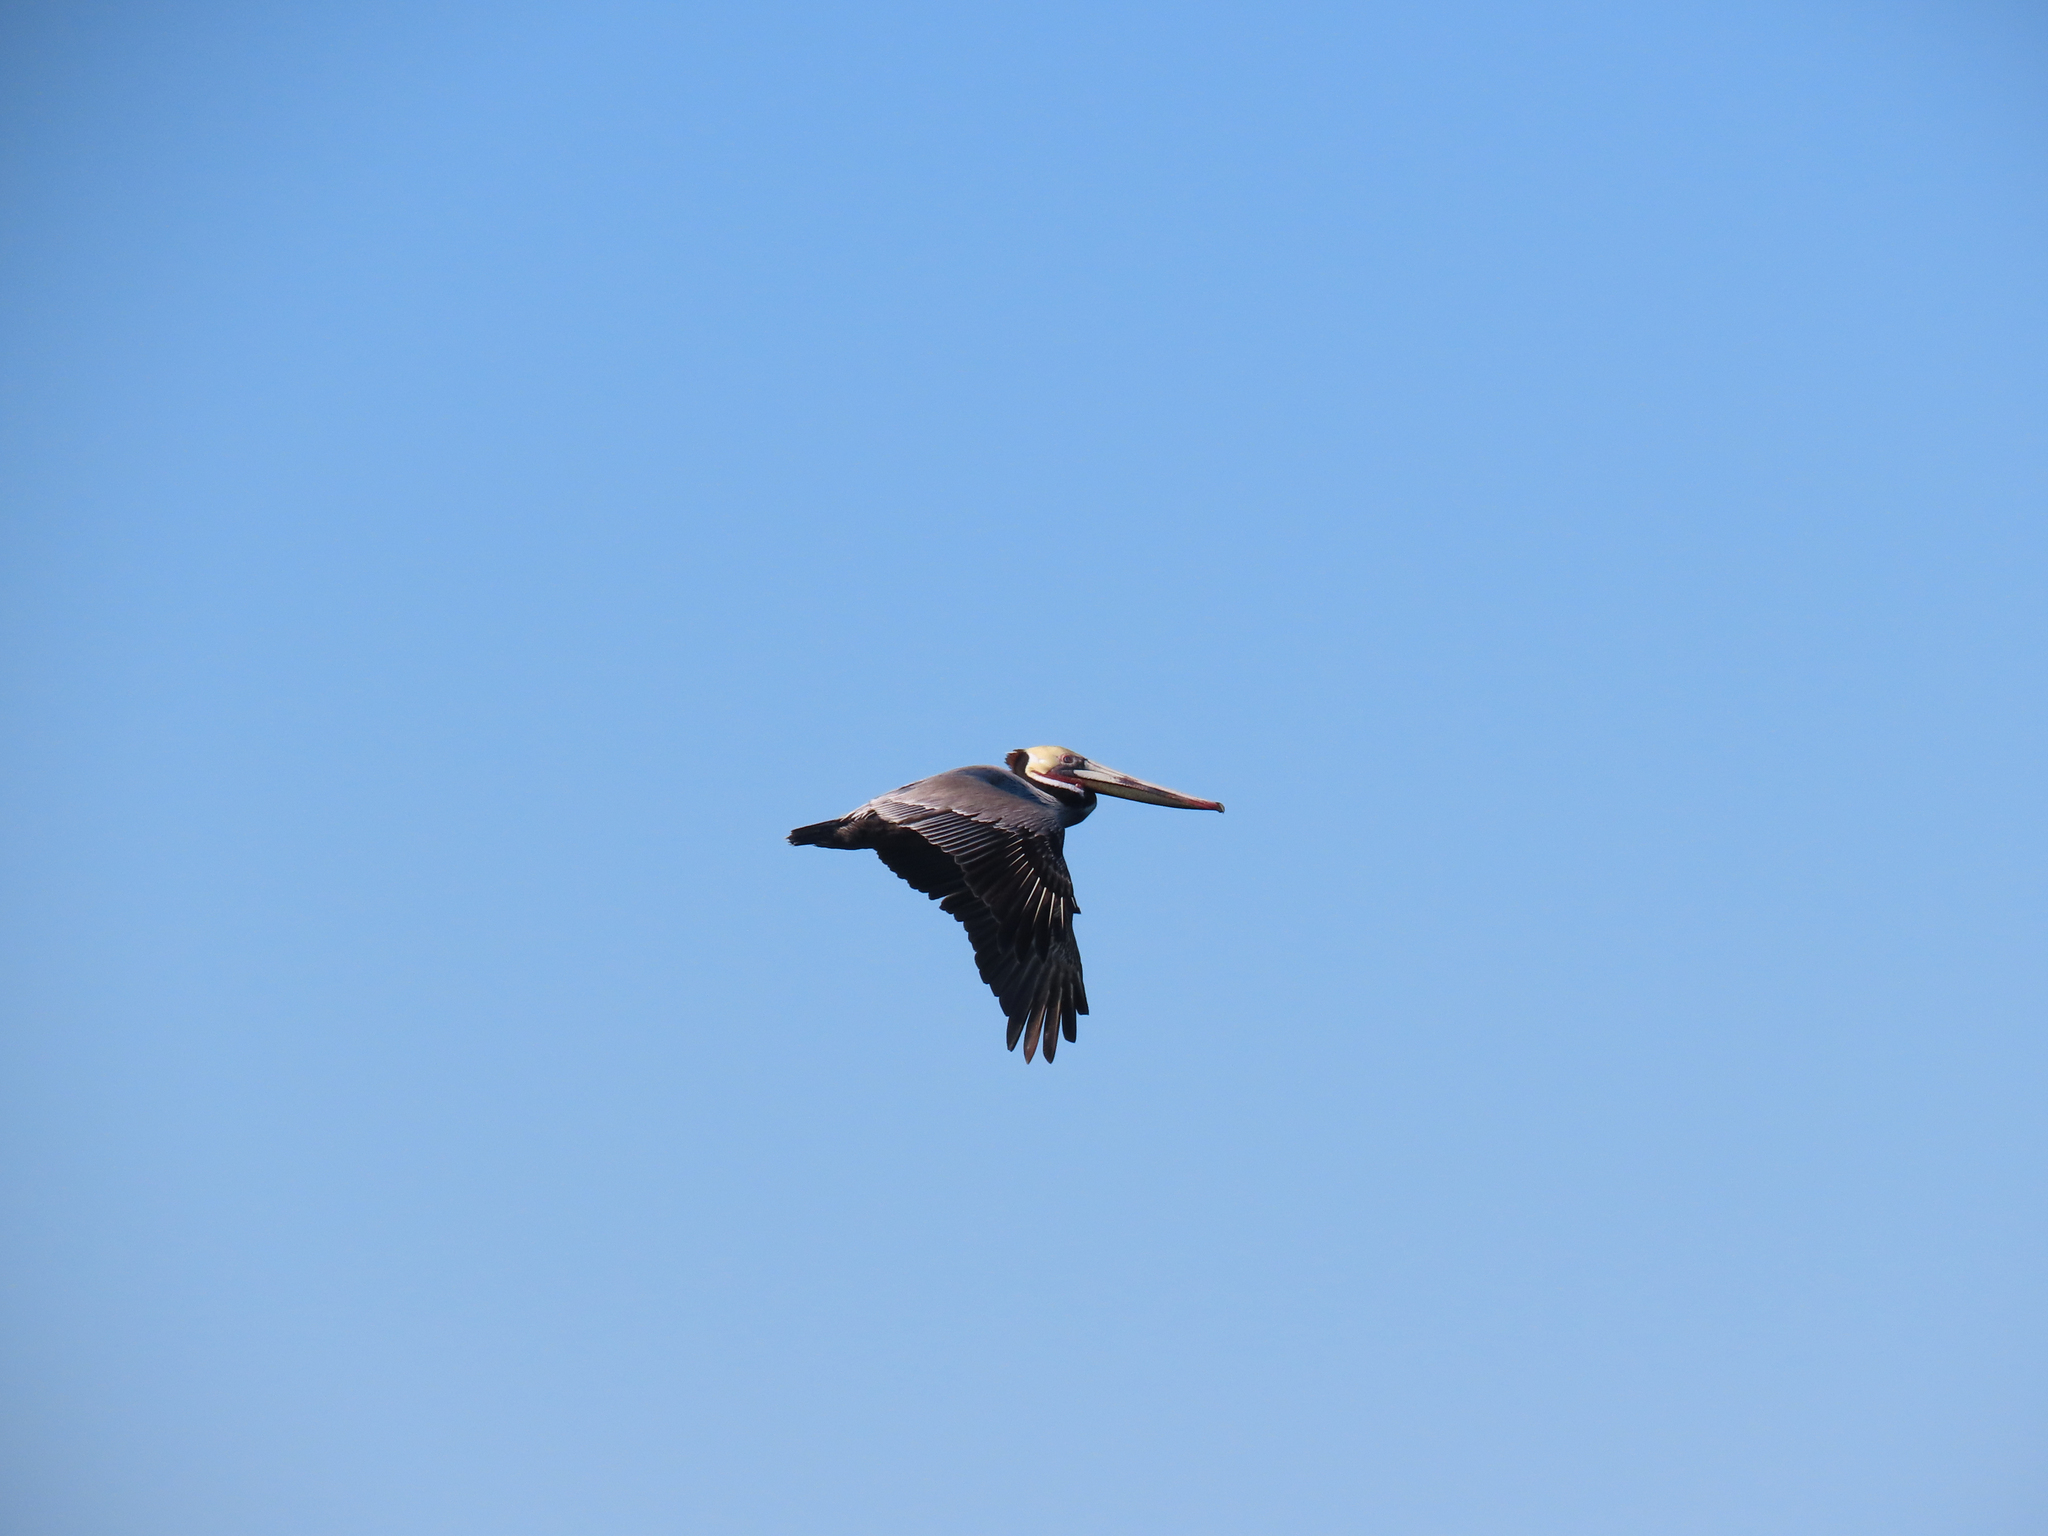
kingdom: Animalia
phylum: Chordata
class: Aves
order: Pelecaniformes
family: Pelecanidae
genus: Pelecanus
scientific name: Pelecanus occidentalis
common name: Brown pelican
